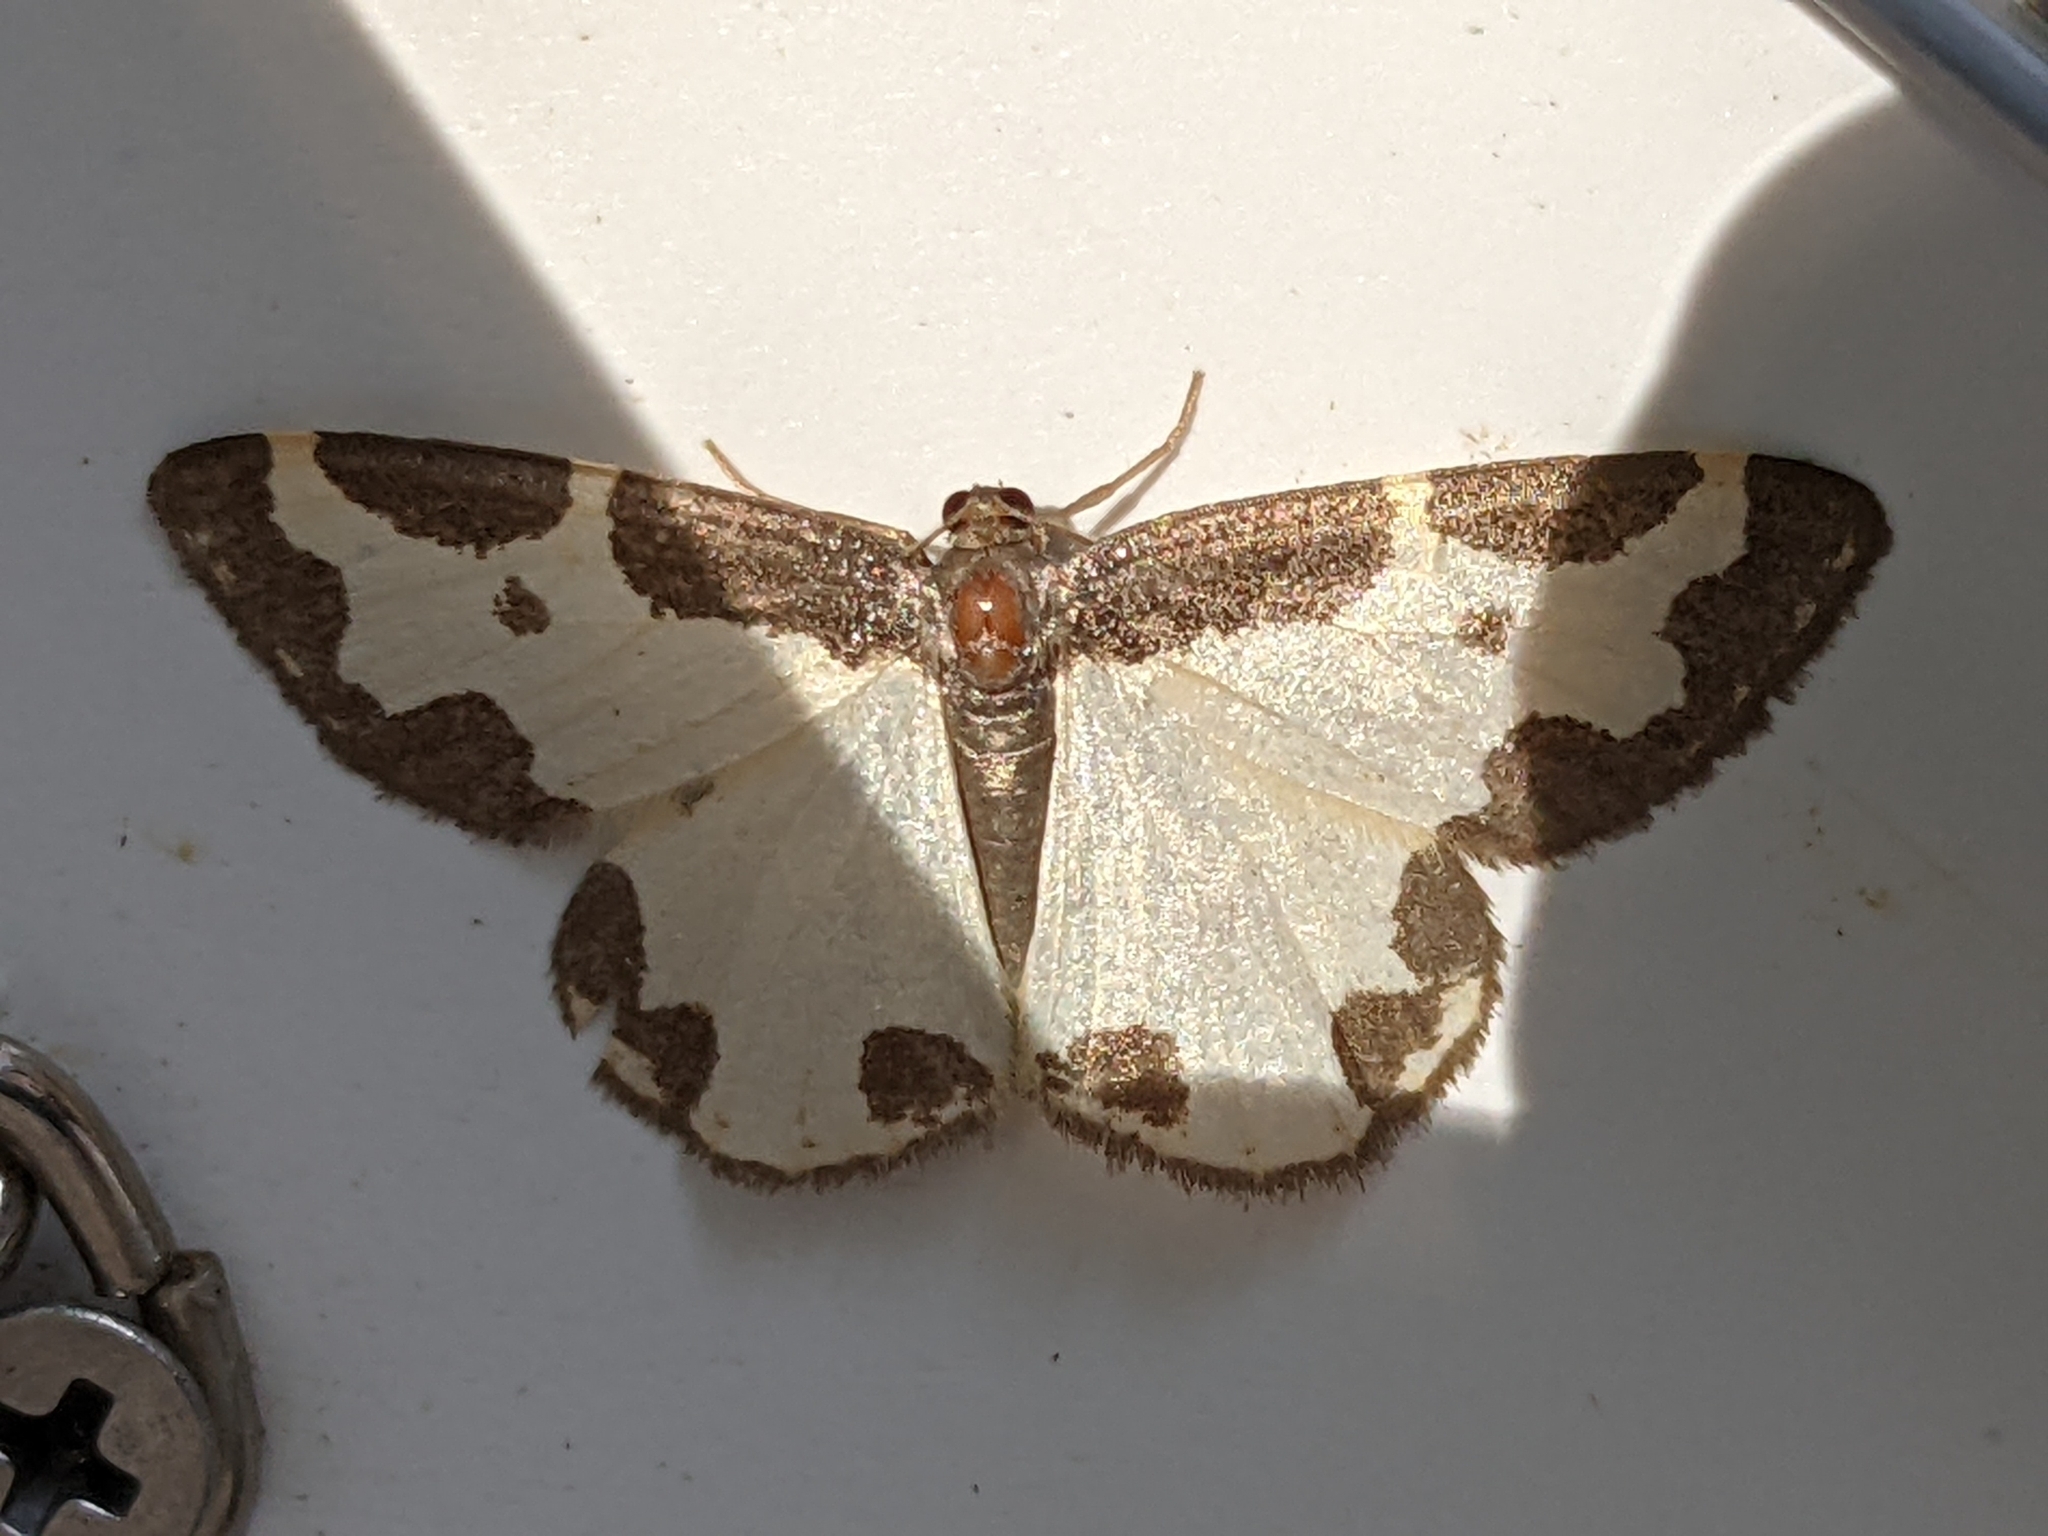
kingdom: Animalia
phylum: Arthropoda
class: Insecta
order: Lepidoptera
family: Geometridae
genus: Lomaspilis
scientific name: Lomaspilis marginata
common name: Clouded border
